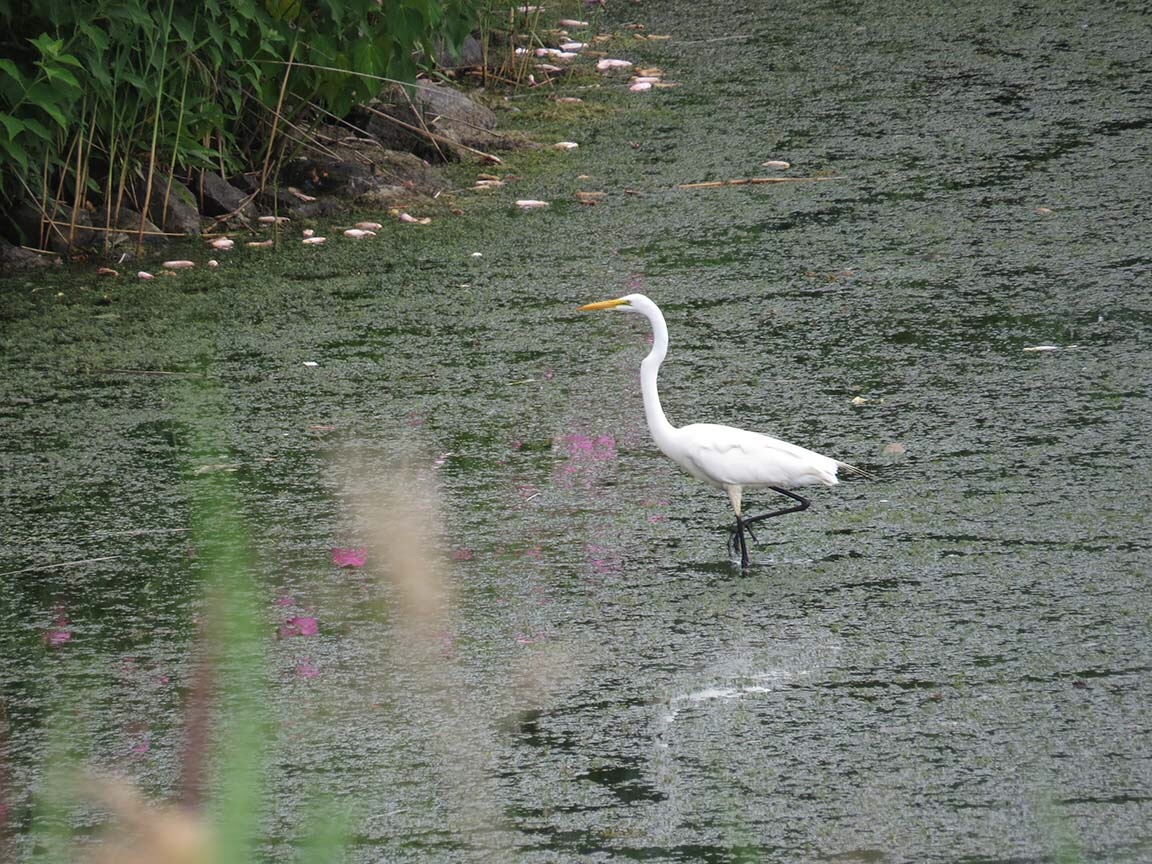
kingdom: Animalia
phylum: Chordata
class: Aves
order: Pelecaniformes
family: Ardeidae
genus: Ardea
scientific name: Ardea alba
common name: Great egret
